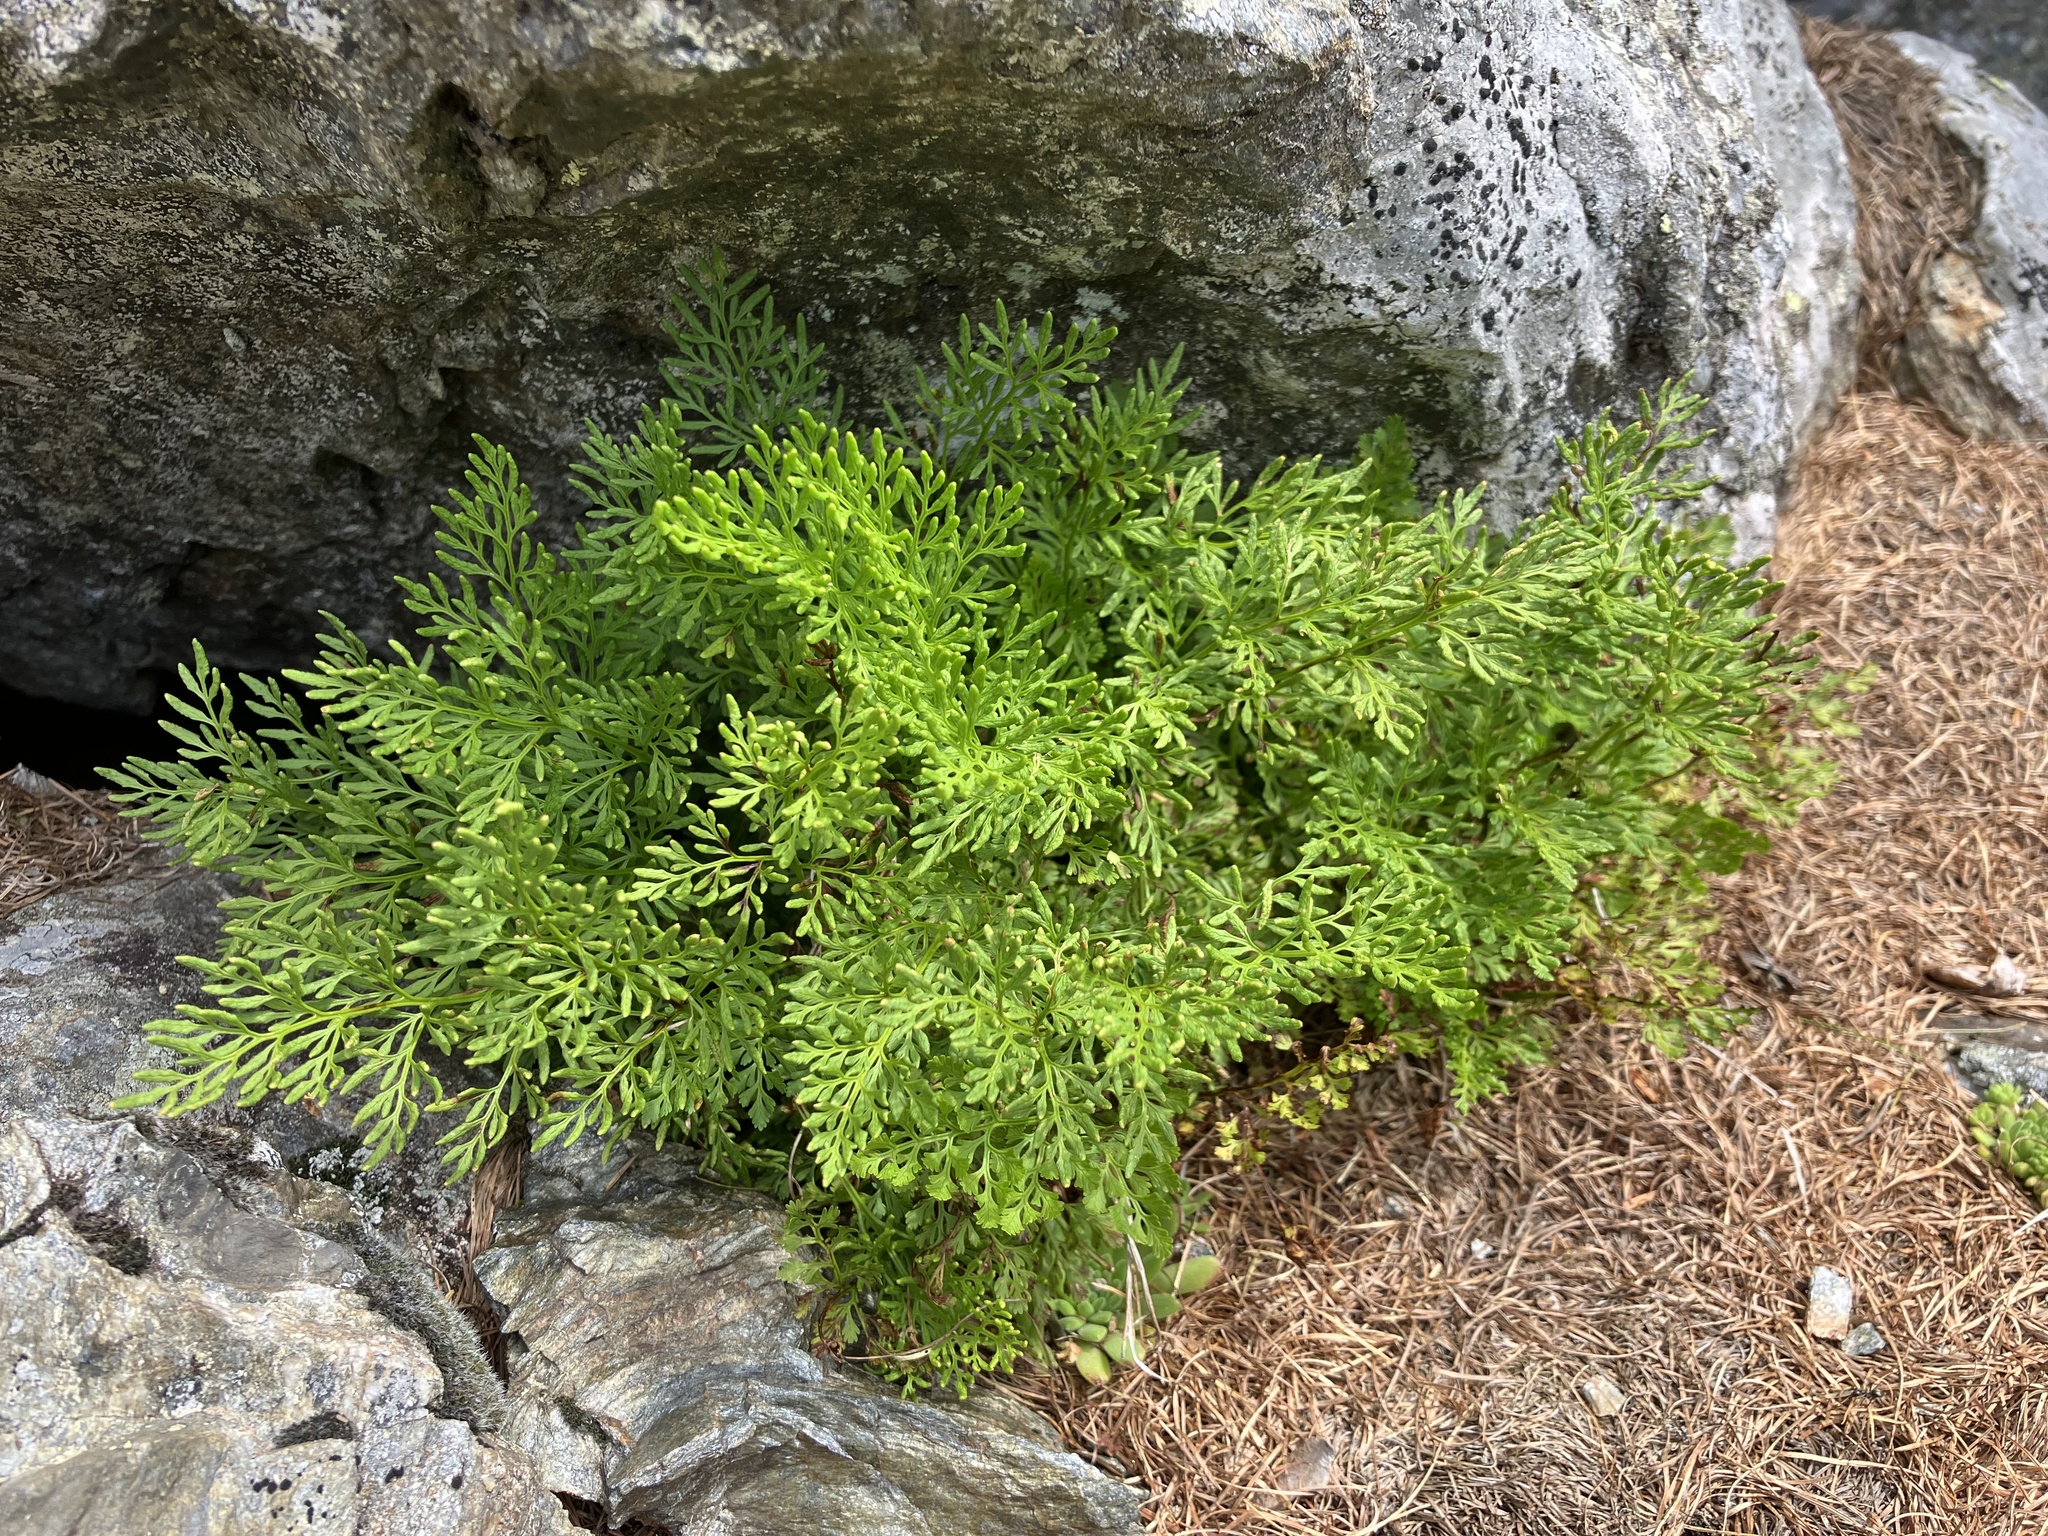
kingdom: Plantae
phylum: Tracheophyta
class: Polypodiopsida
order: Polypodiales
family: Pteridaceae
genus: Cryptogramma
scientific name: Cryptogramma crispa
